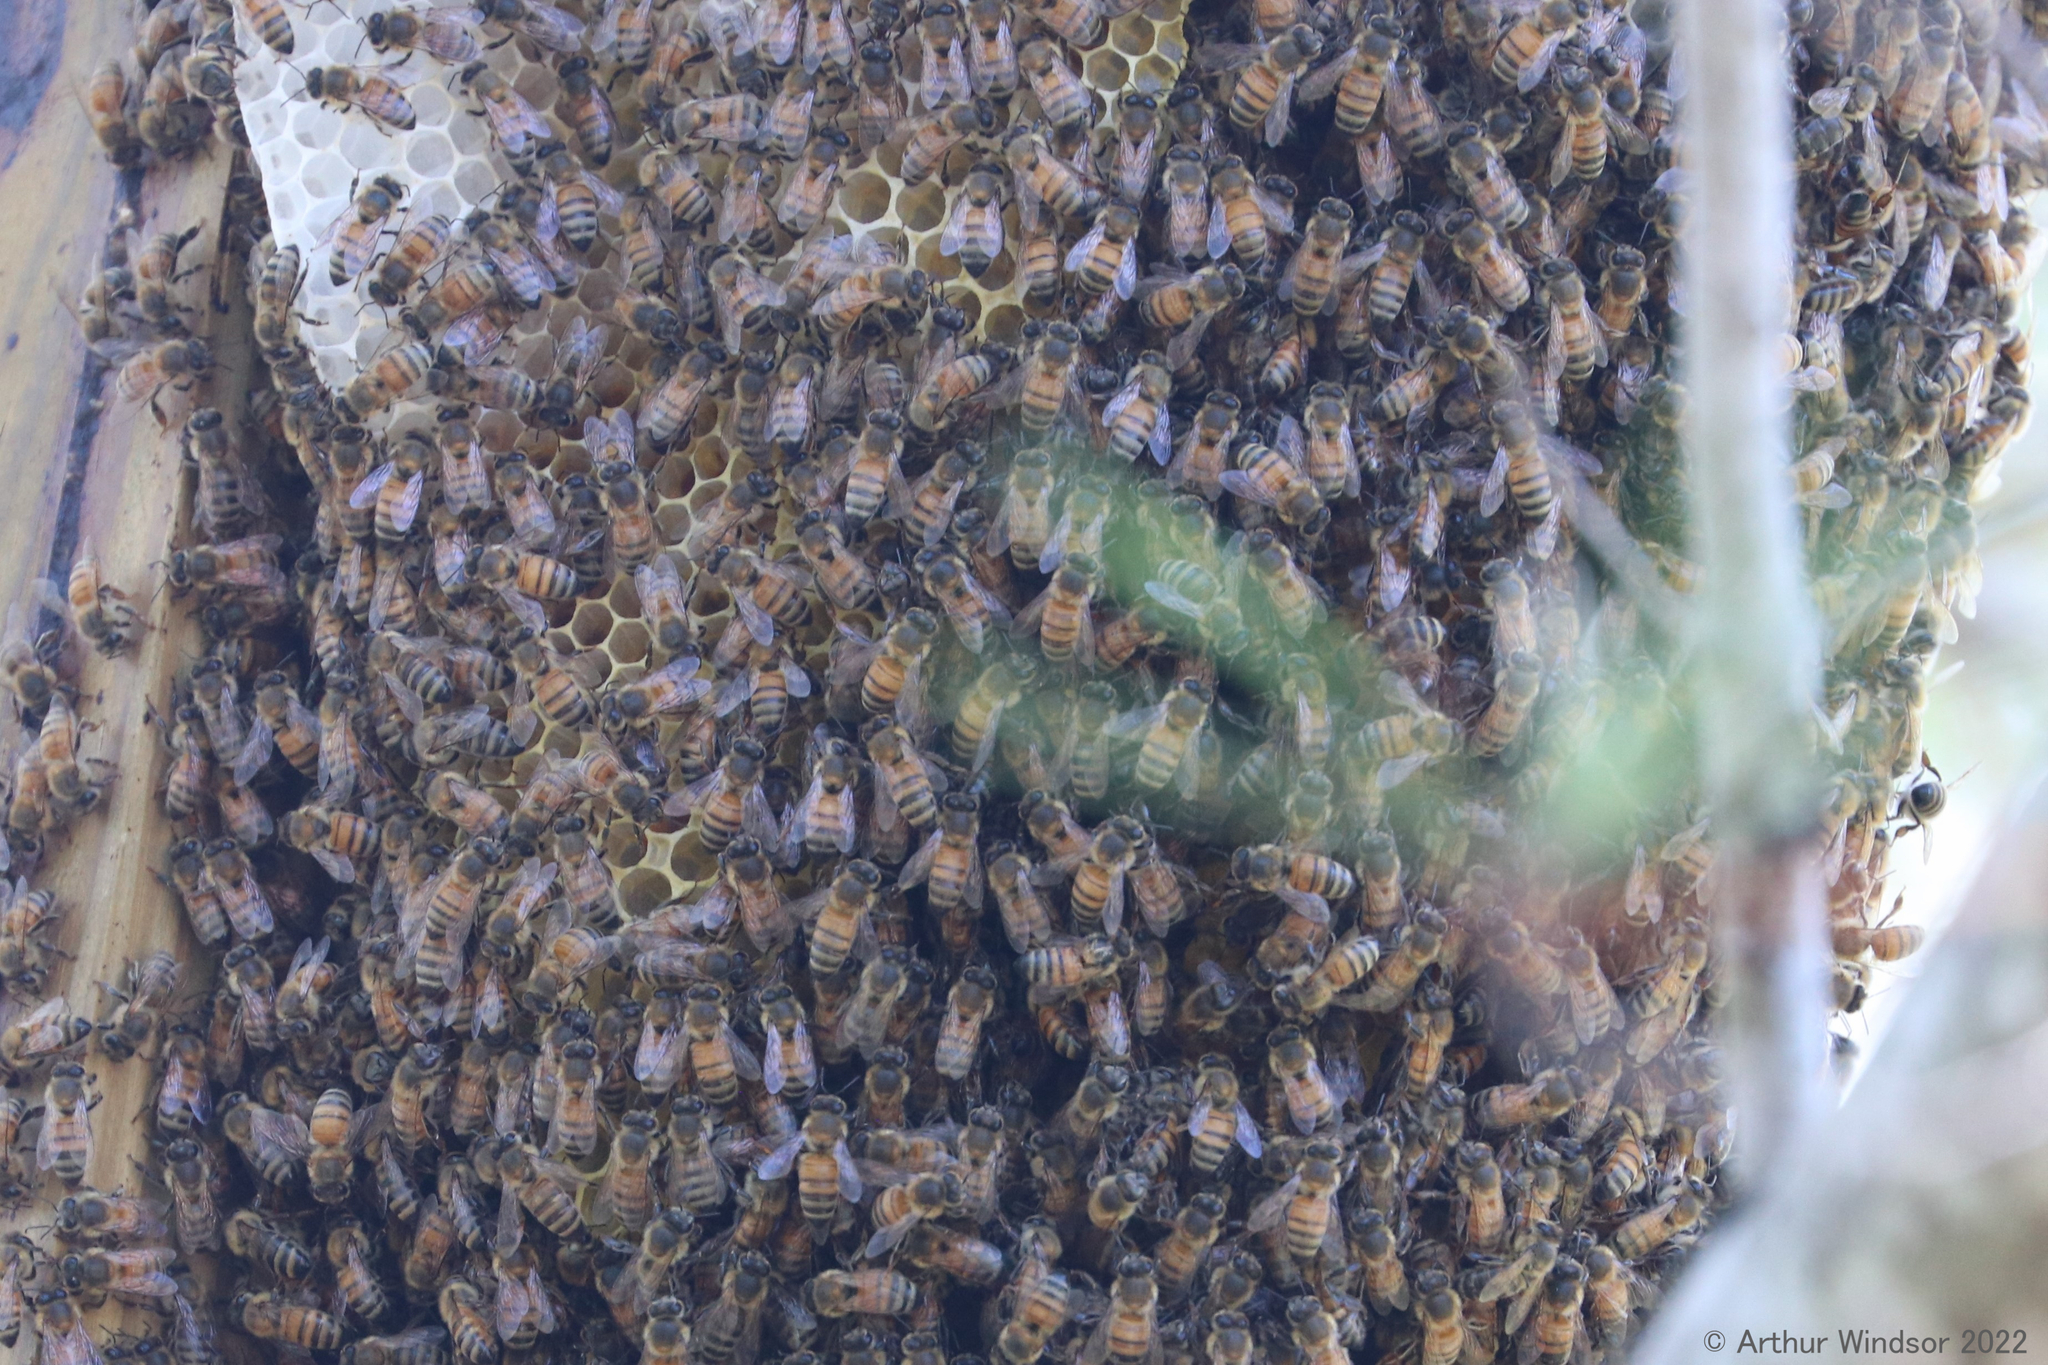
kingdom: Animalia
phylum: Arthropoda
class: Insecta
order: Hymenoptera
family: Apidae
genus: Apis
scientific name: Apis mellifera
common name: Honey bee
